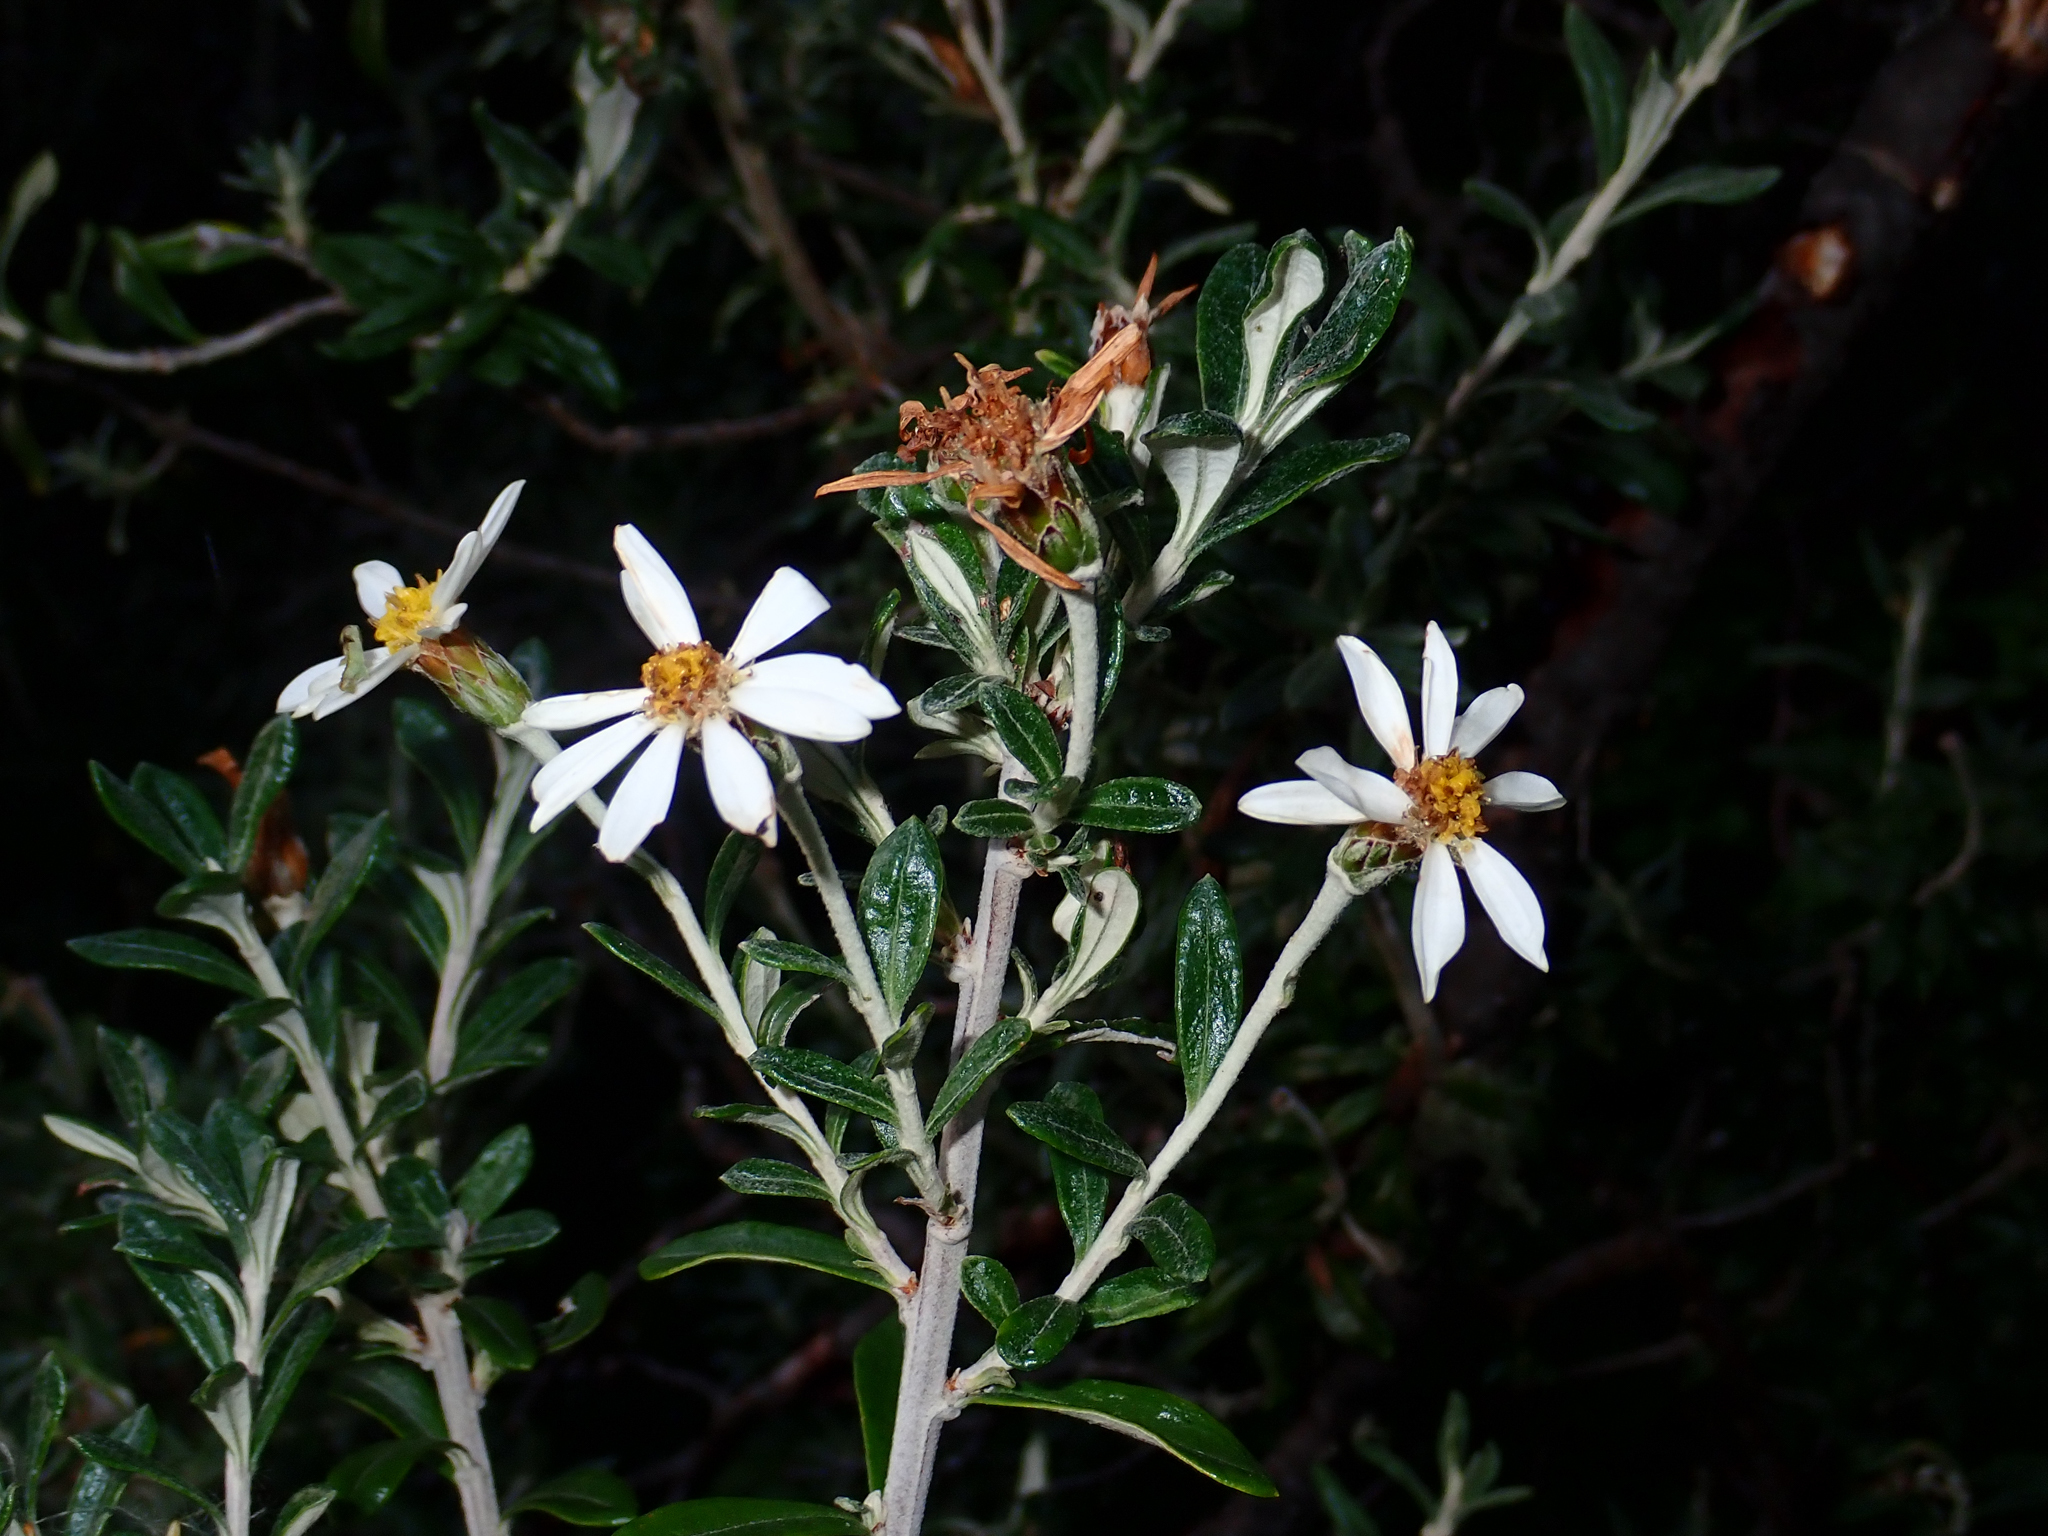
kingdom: Plantae
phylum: Tracheophyta
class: Magnoliopsida
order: Asterales
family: Asteraceae
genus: Chiliotrichum
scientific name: Chiliotrichum diffusum
